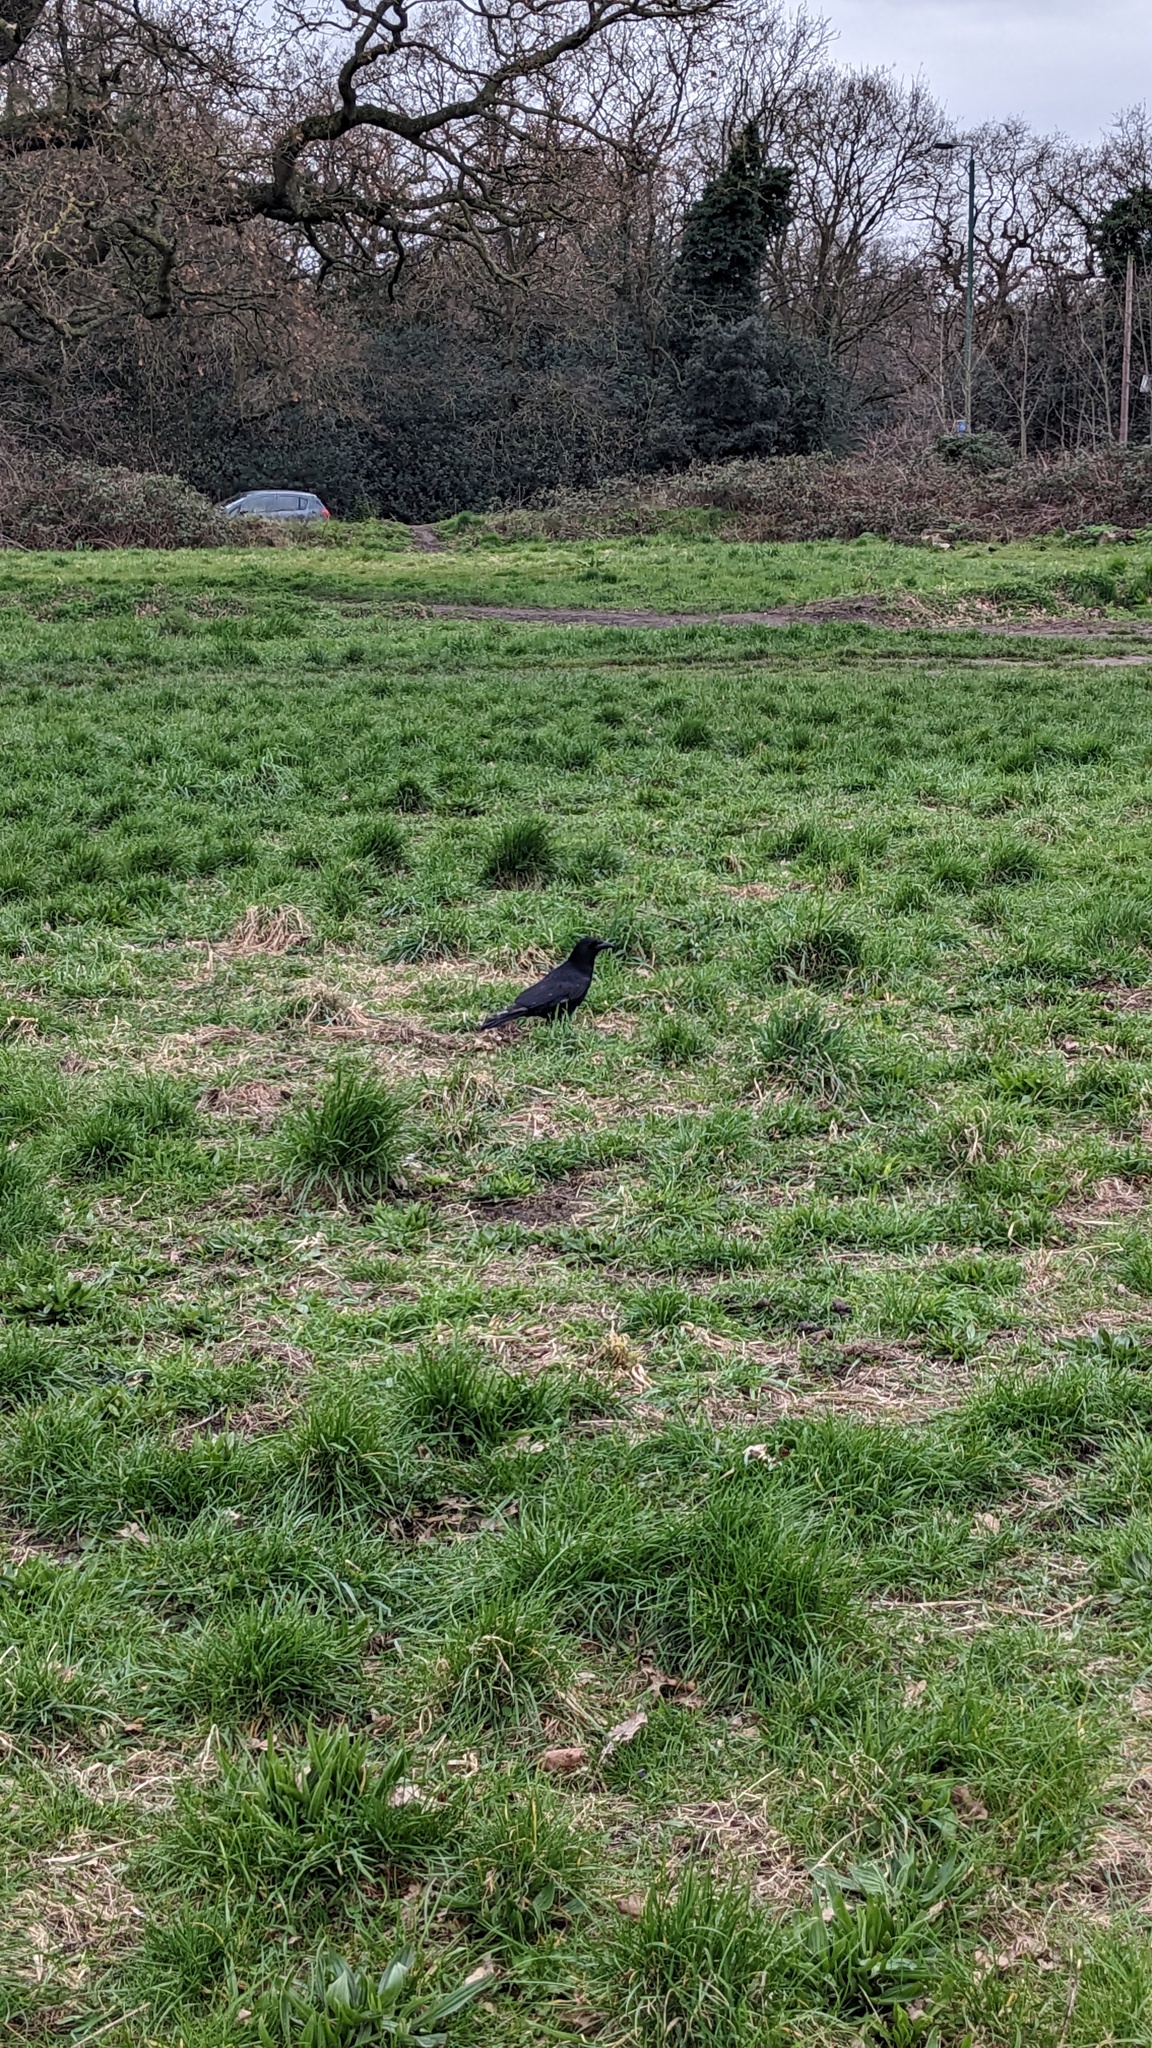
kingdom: Animalia
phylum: Chordata
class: Aves
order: Passeriformes
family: Corvidae
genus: Corvus
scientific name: Corvus corone
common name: Carrion crow
